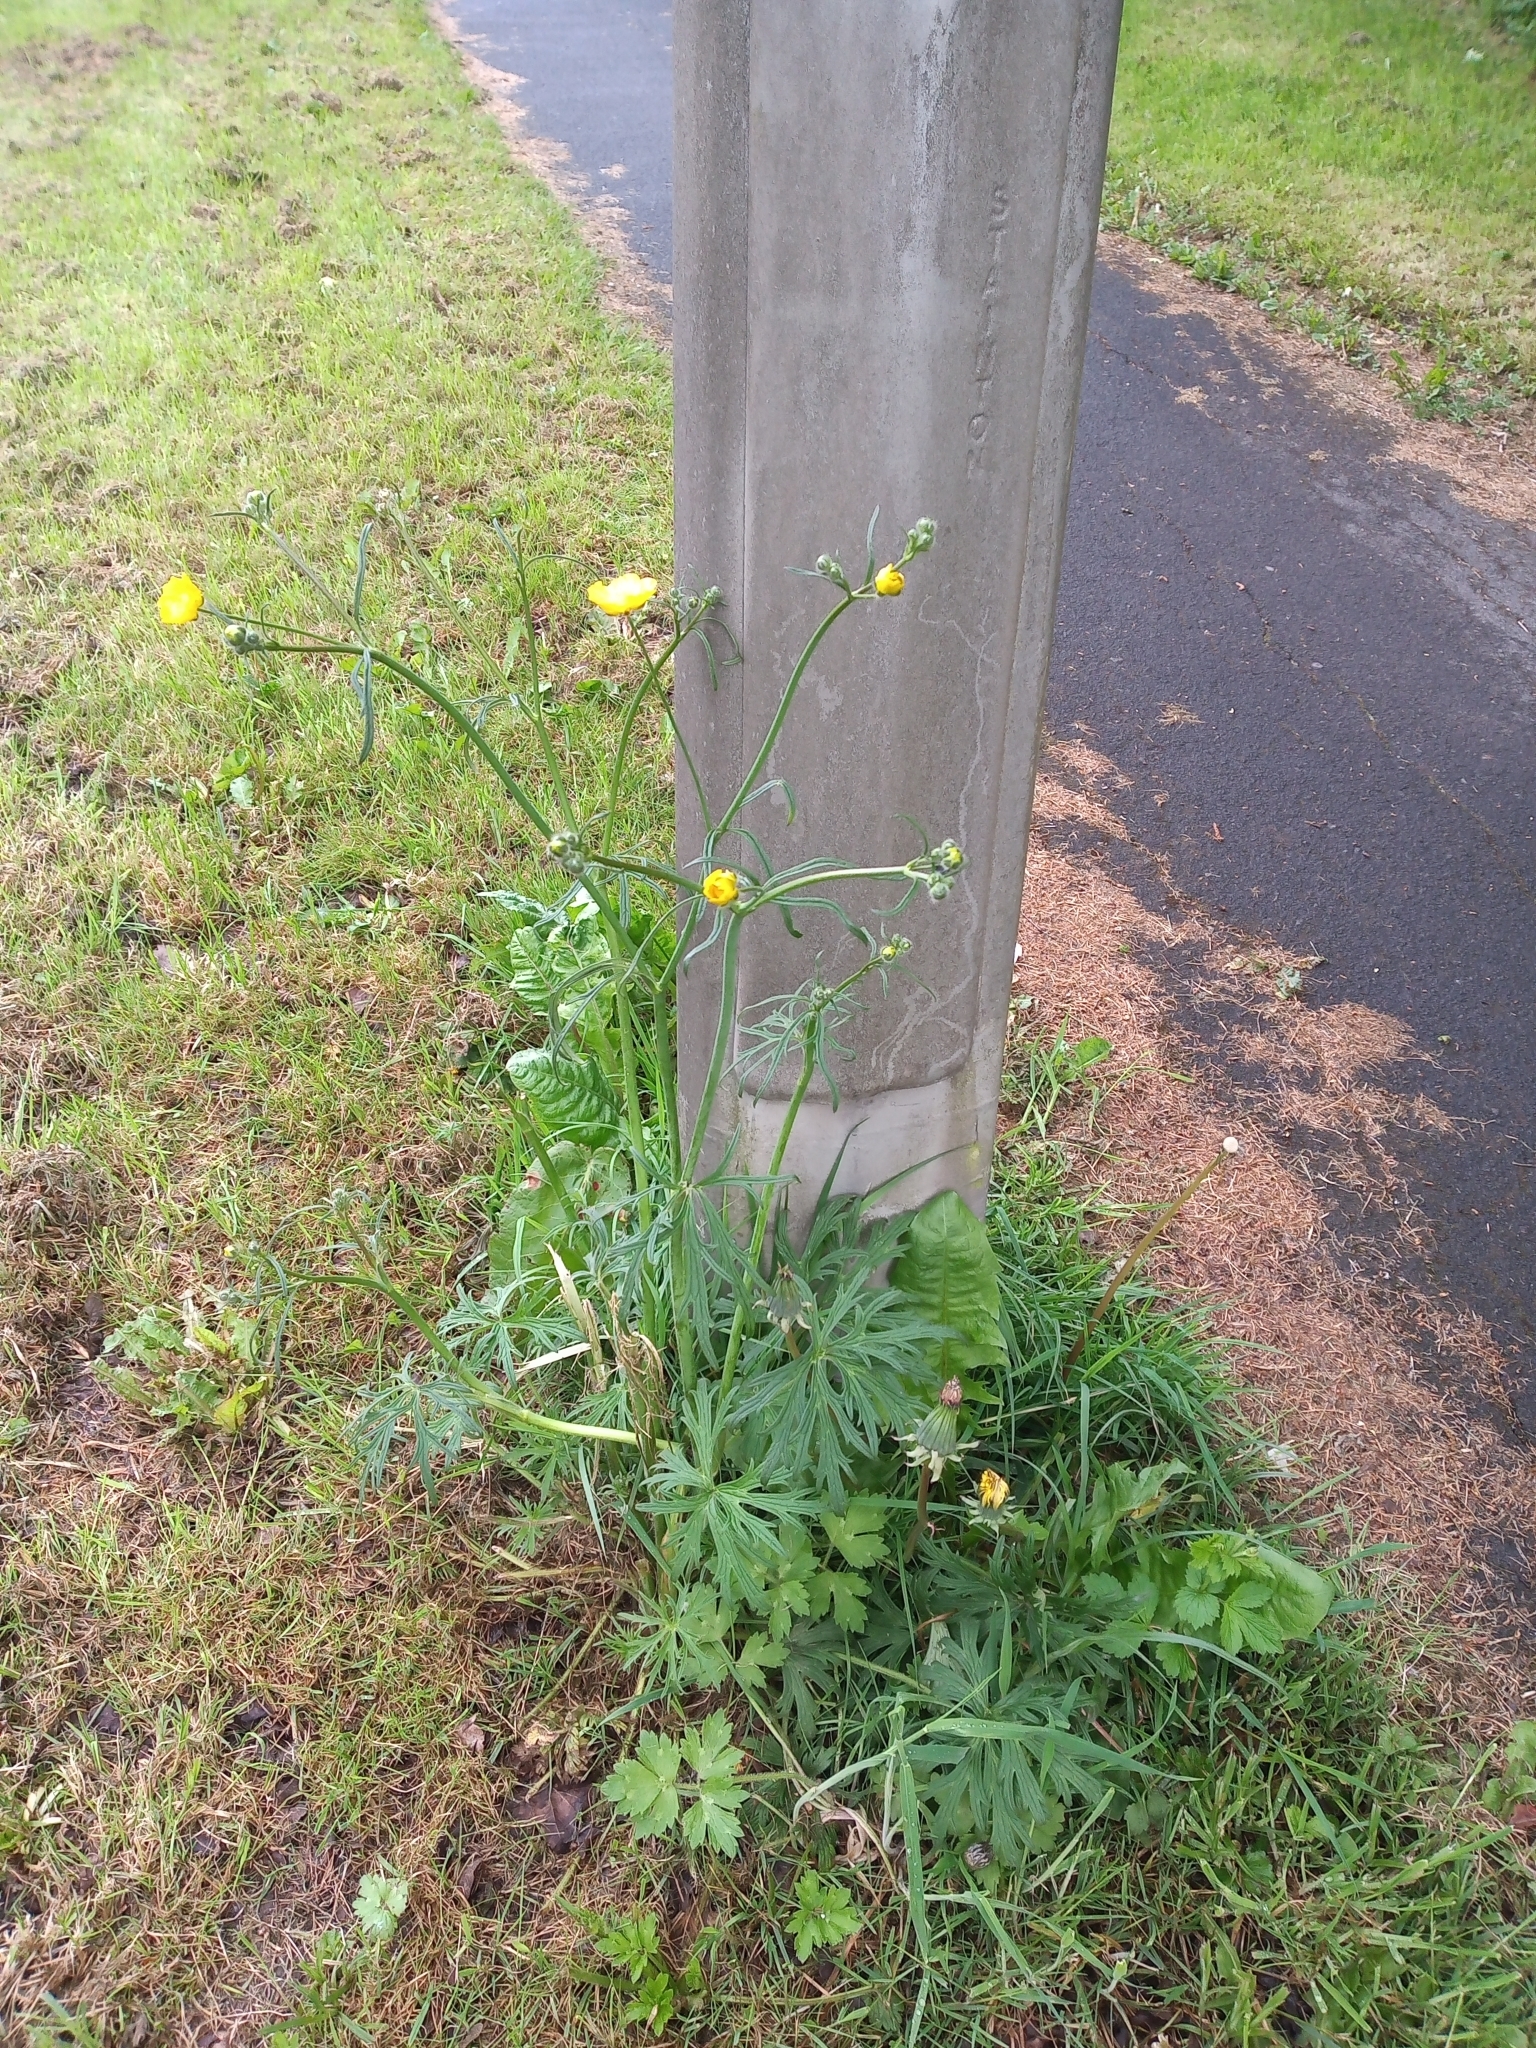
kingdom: Plantae
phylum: Tracheophyta
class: Magnoliopsida
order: Ranunculales
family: Ranunculaceae
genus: Ranunculus
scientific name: Ranunculus acris
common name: Meadow buttercup
